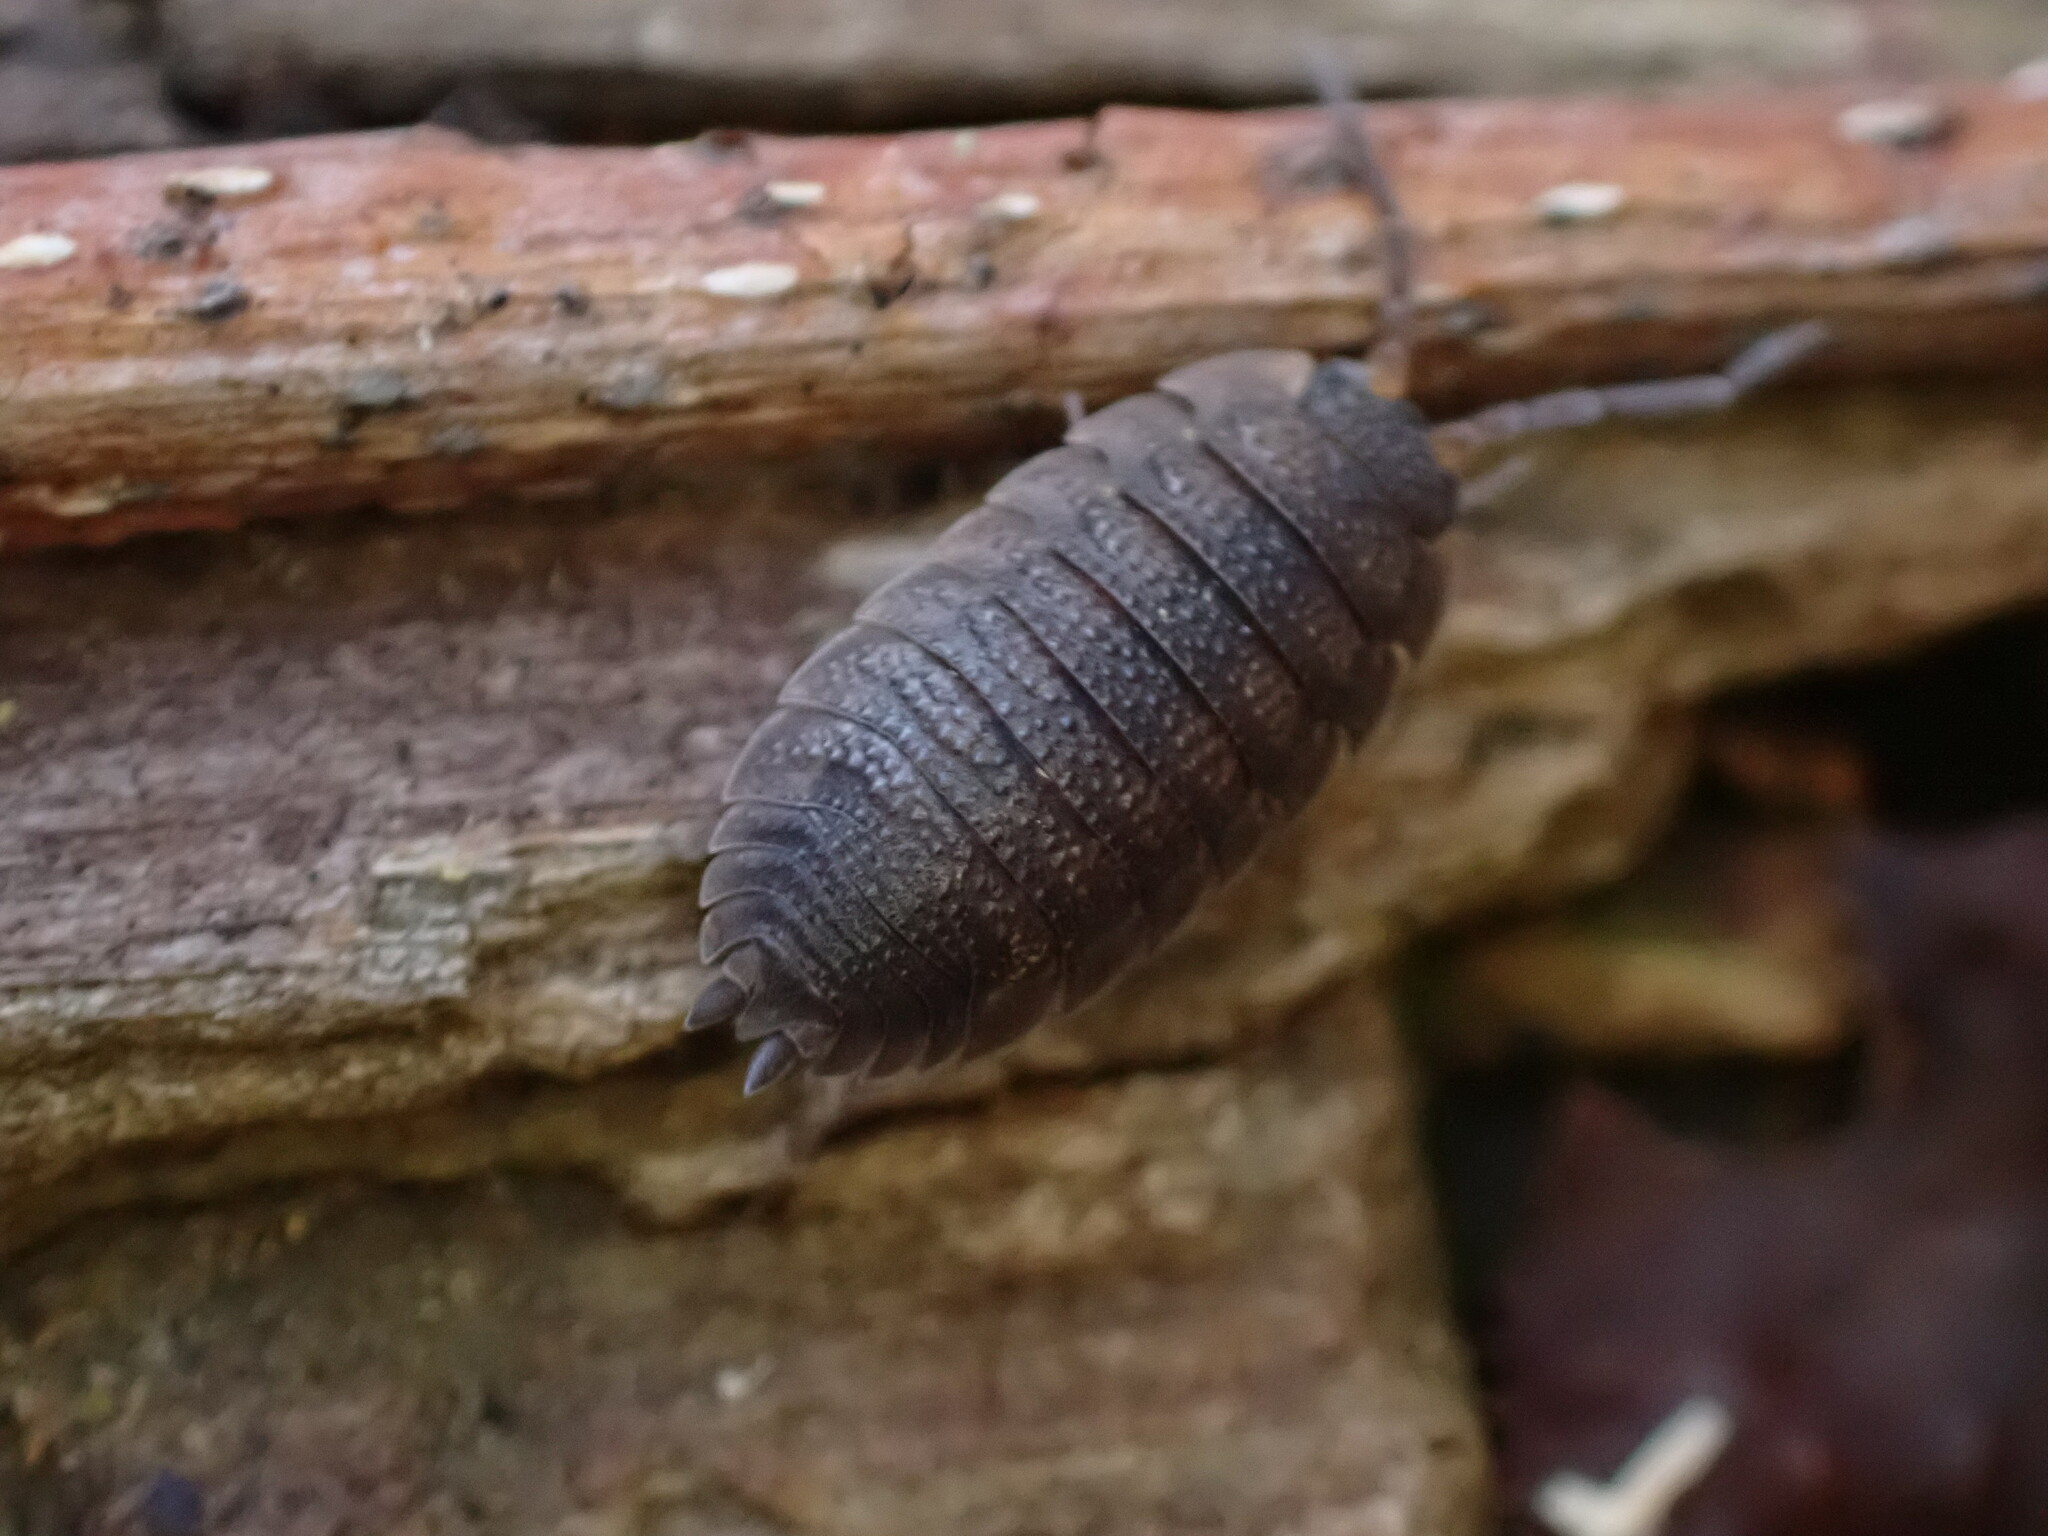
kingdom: Animalia
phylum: Arthropoda
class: Malacostraca
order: Isopoda
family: Porcellionidae
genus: Porcellio
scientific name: Porcellio scaber
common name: Common rough woodlouse
